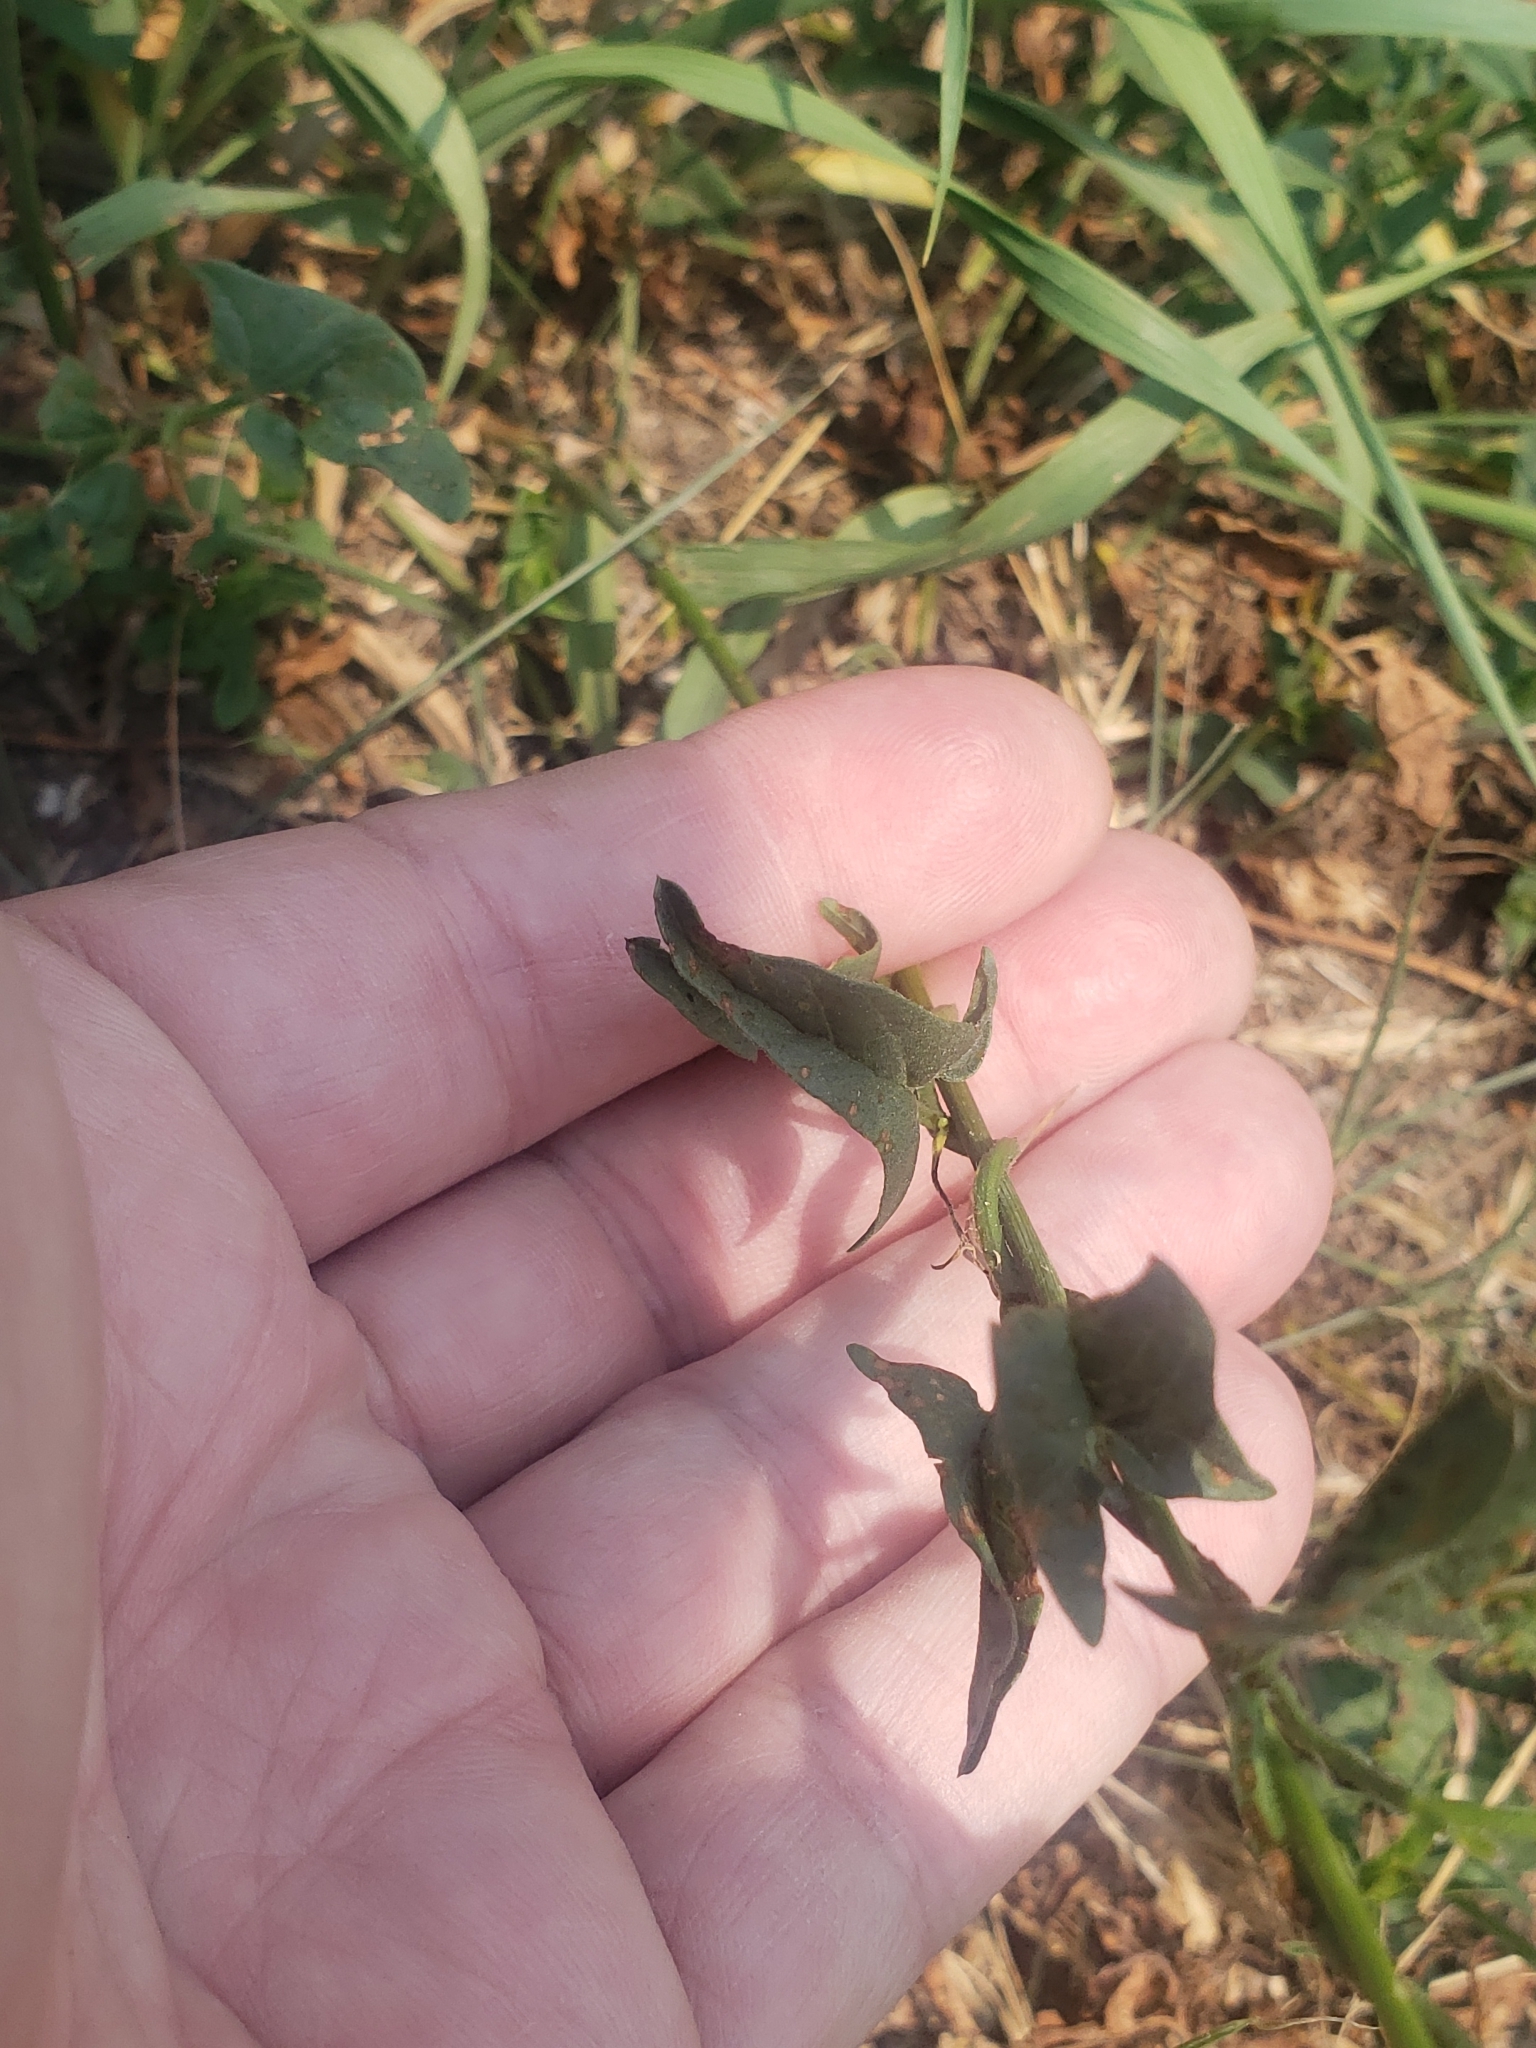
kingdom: Plantae
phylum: Tracheophyta
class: Magnoliopsida
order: Solanales
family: Convolvulaceae
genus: Convolvulus
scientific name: Convolvulus arvensis
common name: Field bindweed
